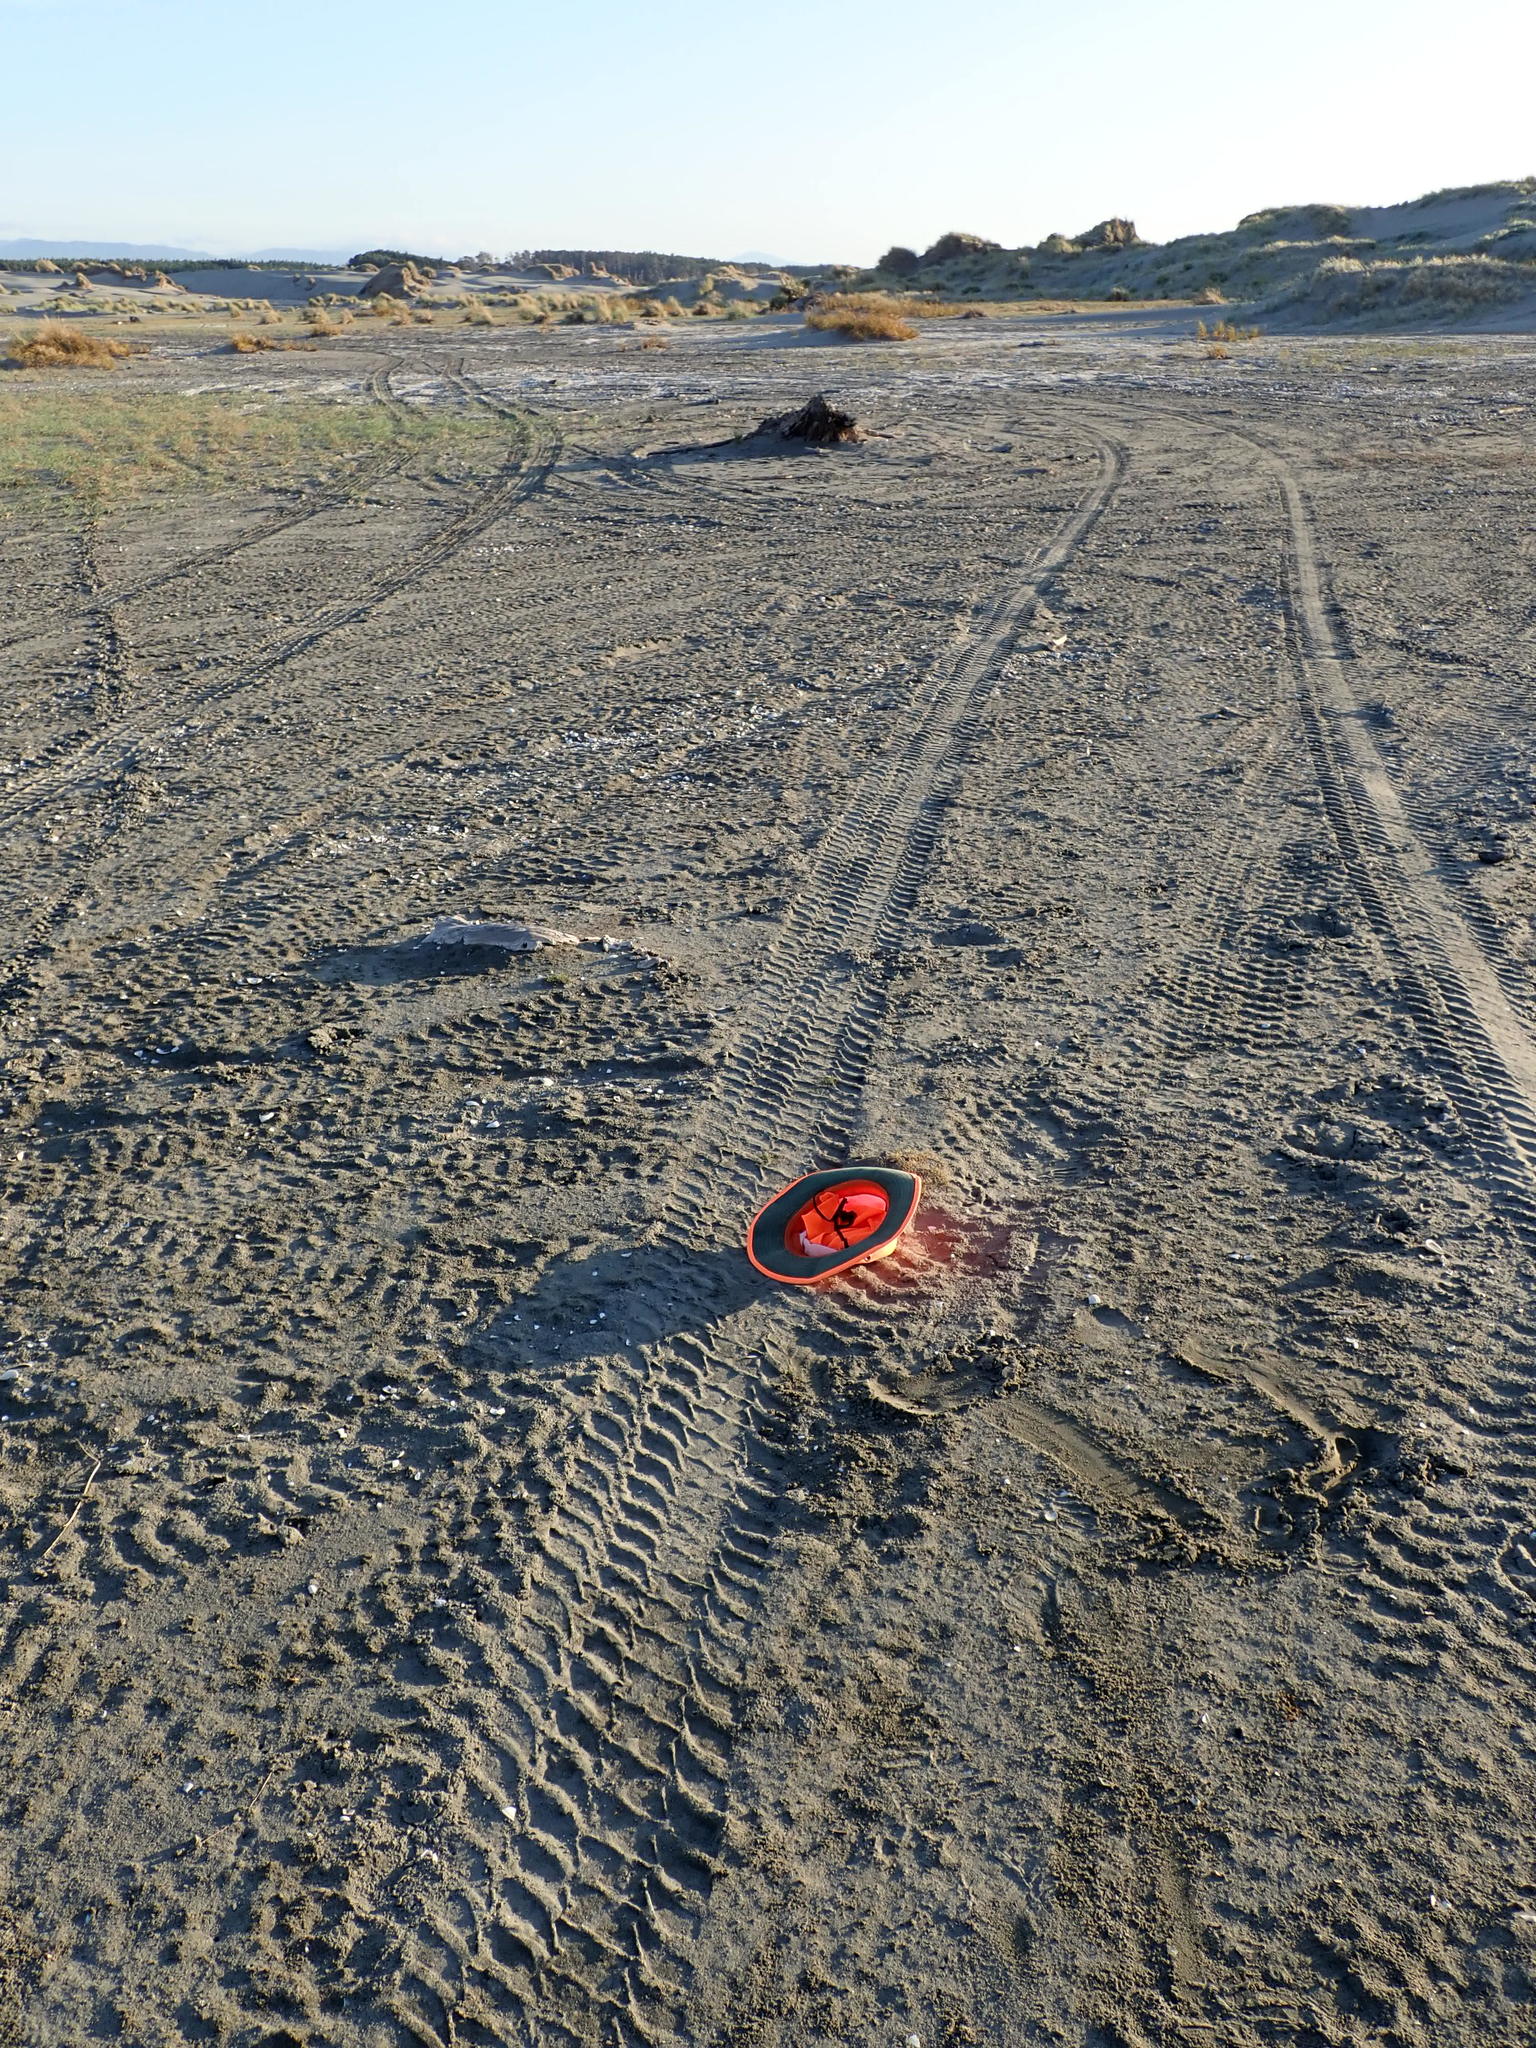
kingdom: Plantae
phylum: Tracheophyta
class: Liliopsida
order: Poales
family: Cyperaceae
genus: Isolepis
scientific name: Isolepis cernua
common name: Slender club-rush
